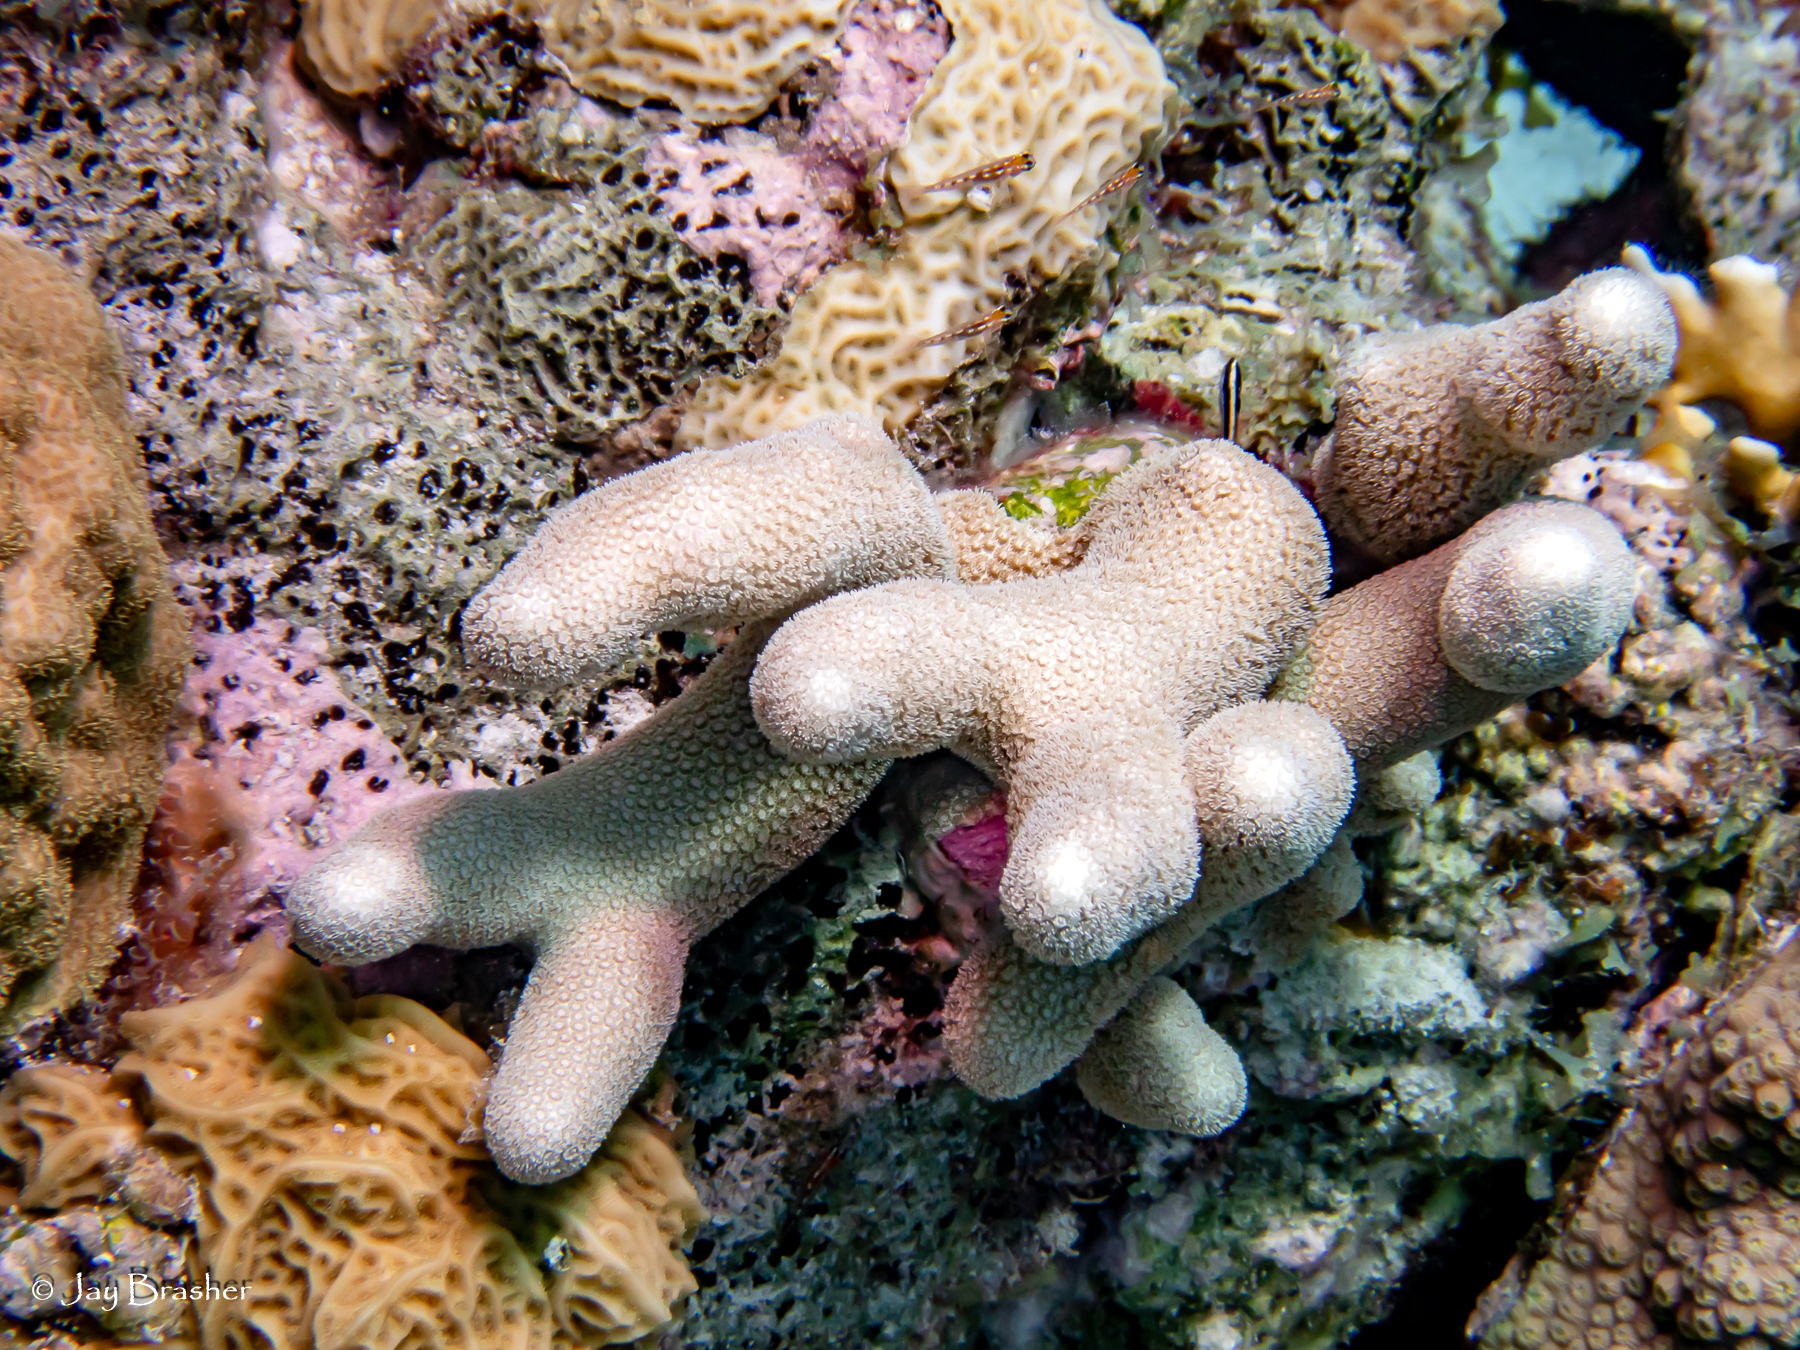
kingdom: Animalia
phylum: Cnidaria
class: Anthozoa
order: Scleractinia
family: Poritidae
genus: Porites
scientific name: Porites porites
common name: Finger coral
